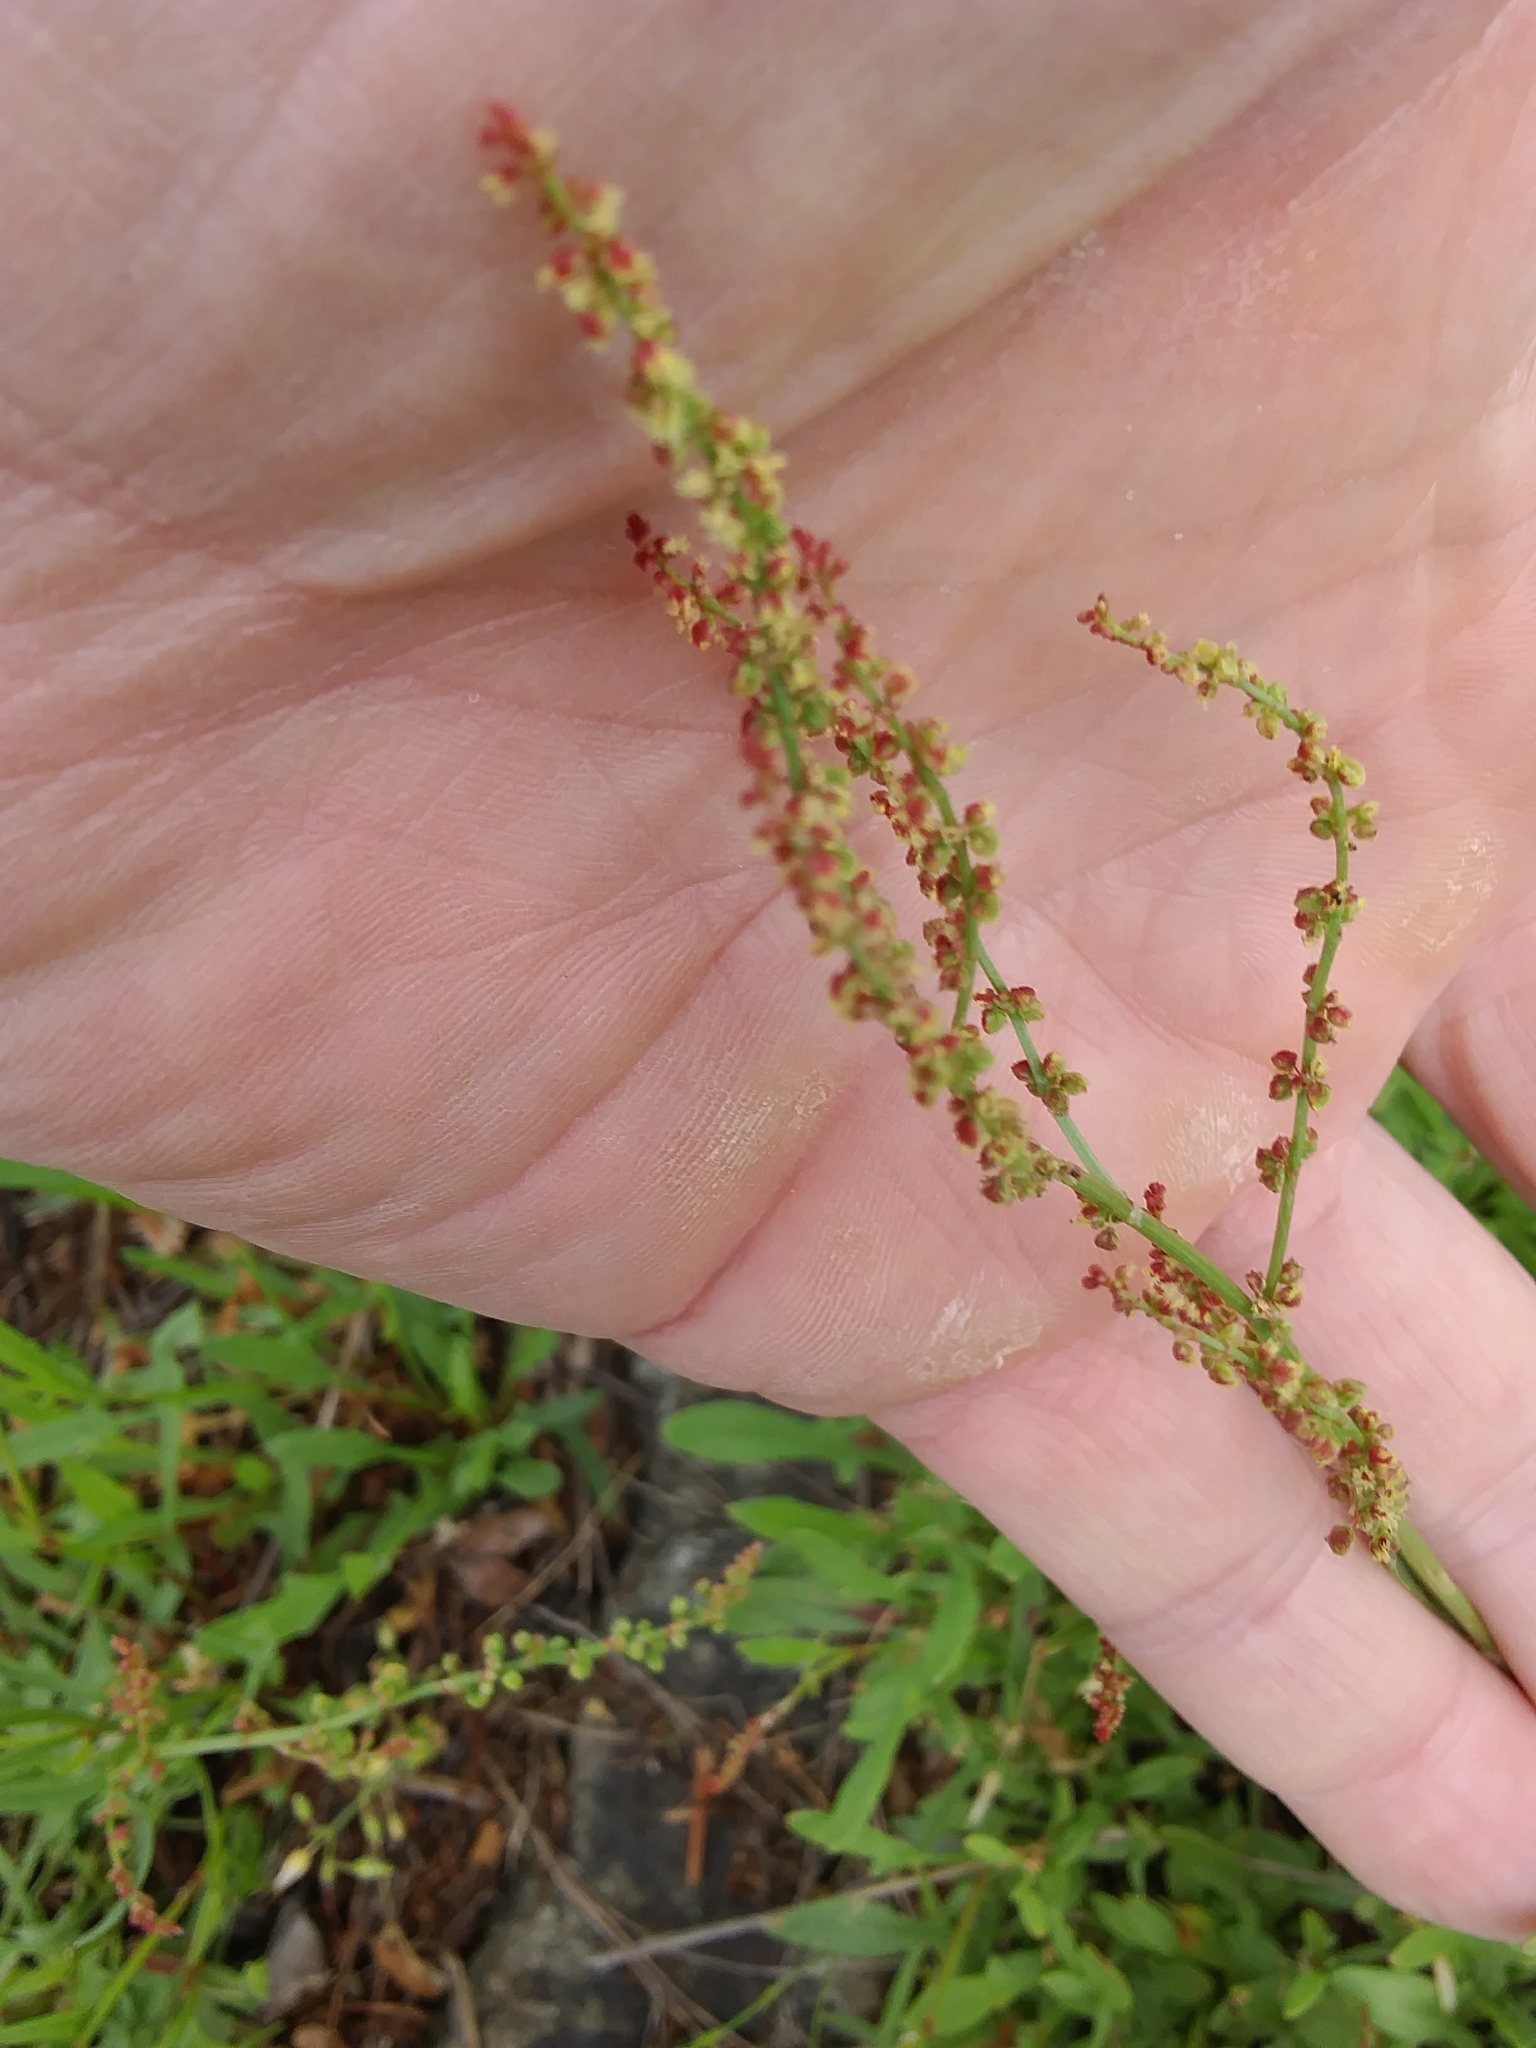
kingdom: Plantae
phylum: Tracheophyta
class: Magnoliopsida
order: Caryophyllales
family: Polygonaceae
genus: Rumex
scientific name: Rumex acetosella
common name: Common sheep sorrel
